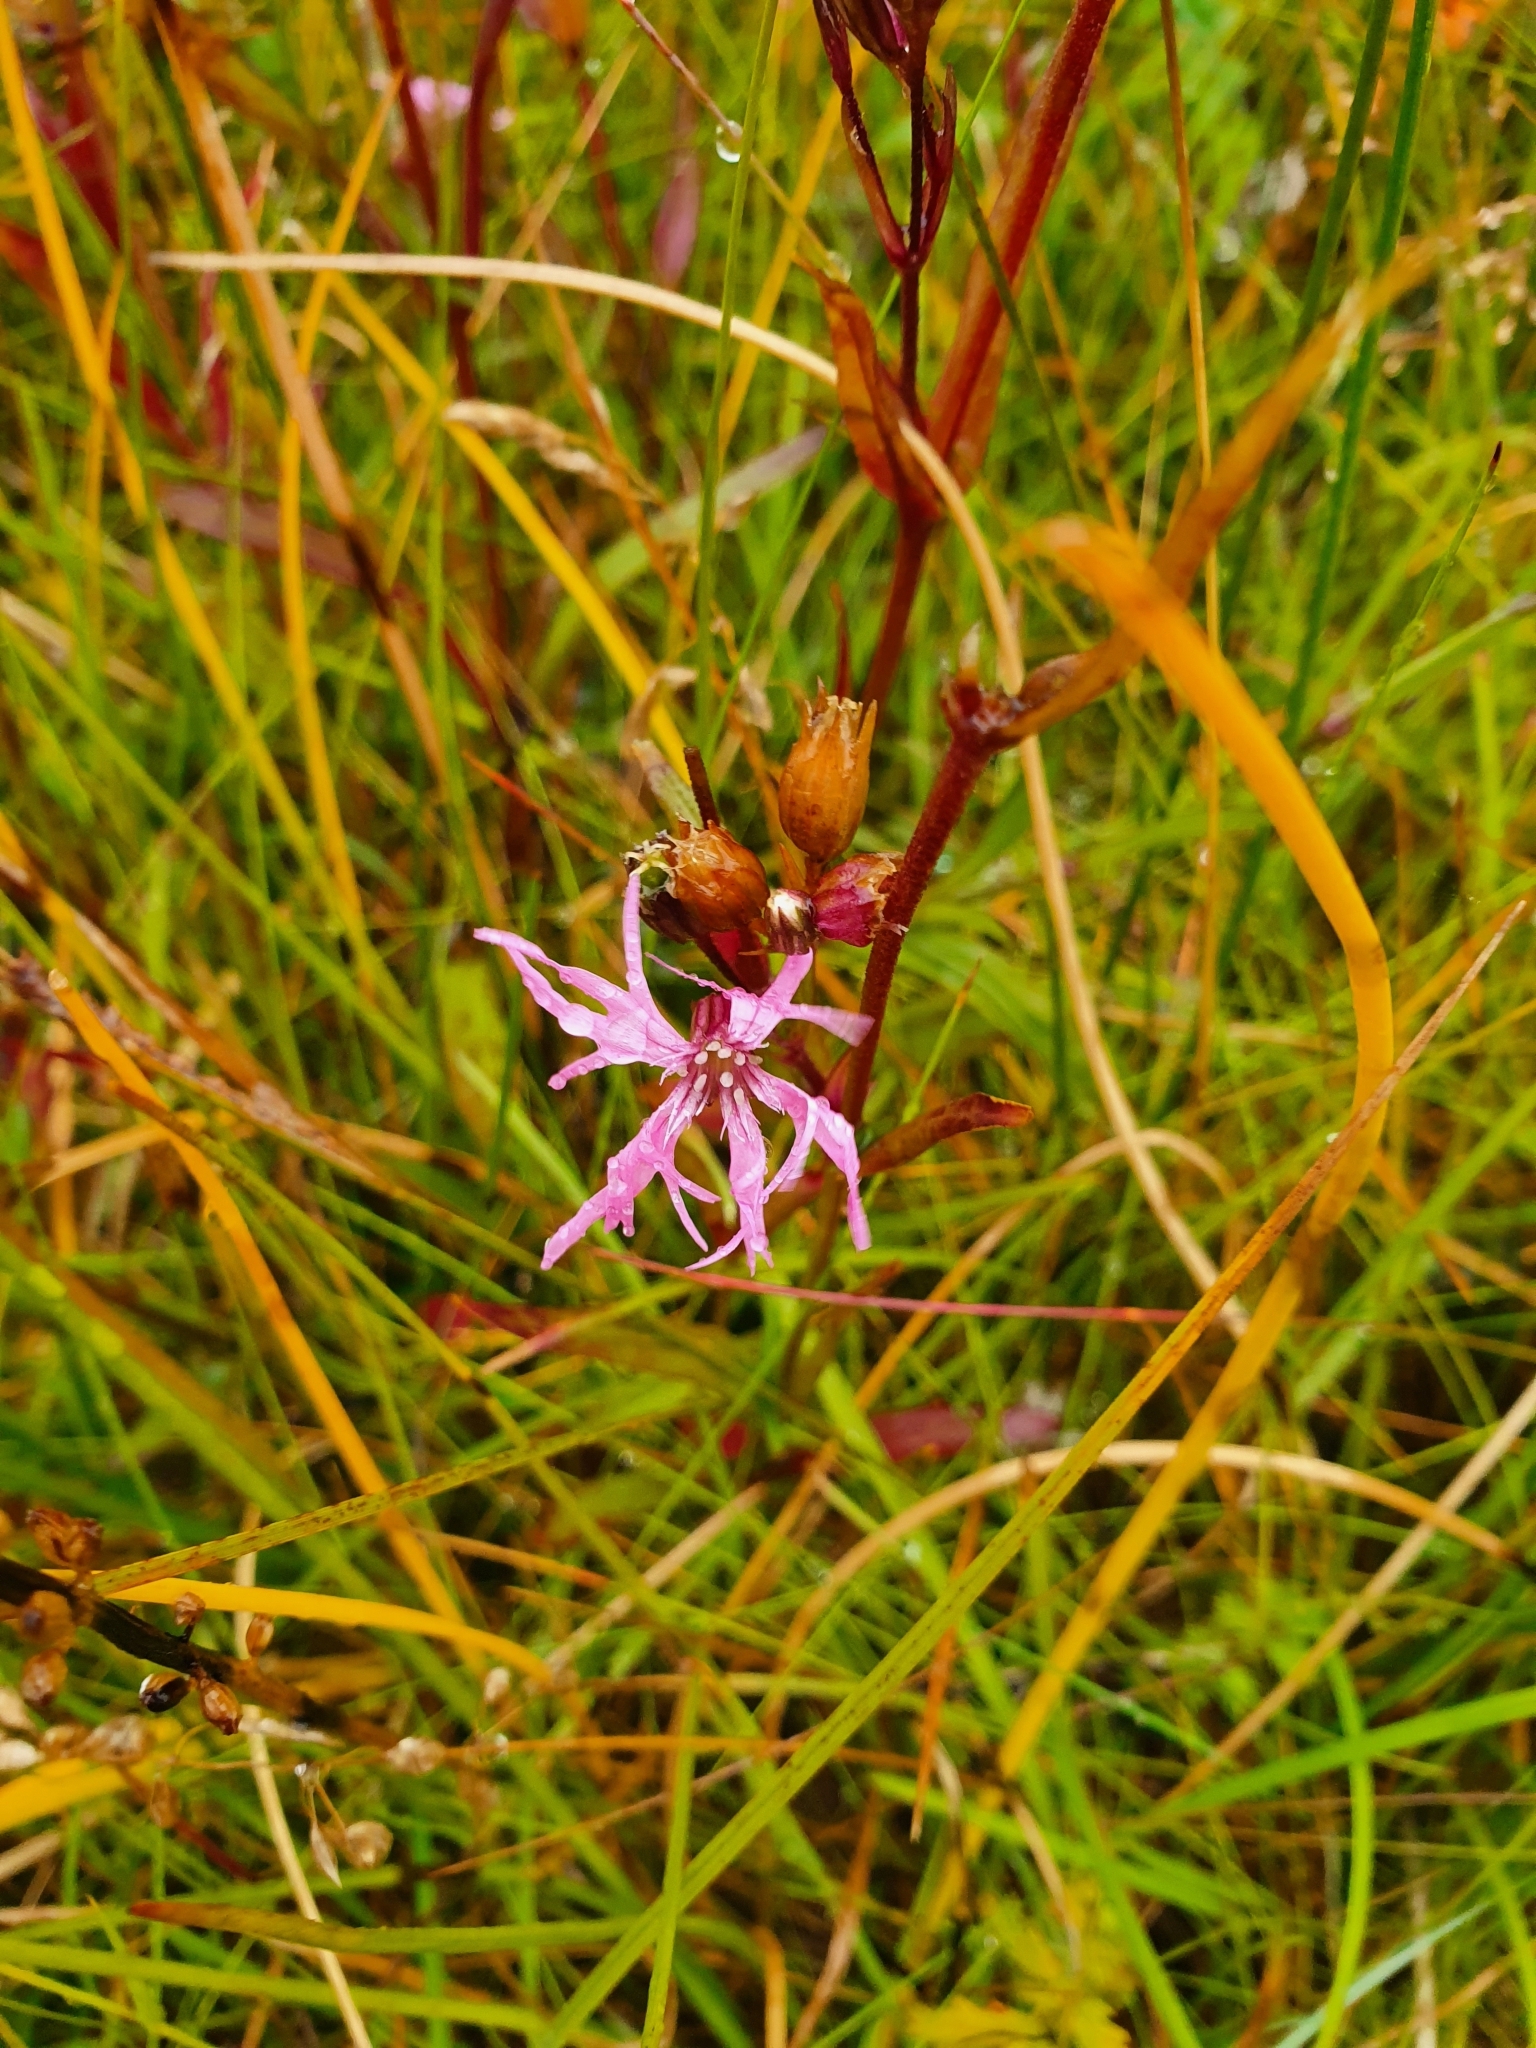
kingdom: Plantae
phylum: Tracheophyta
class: Magnoliopsida
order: Caryophyllales
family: Caryophyllaceae
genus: Silene
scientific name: Silene flos-cuculi
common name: Ragged-robin
